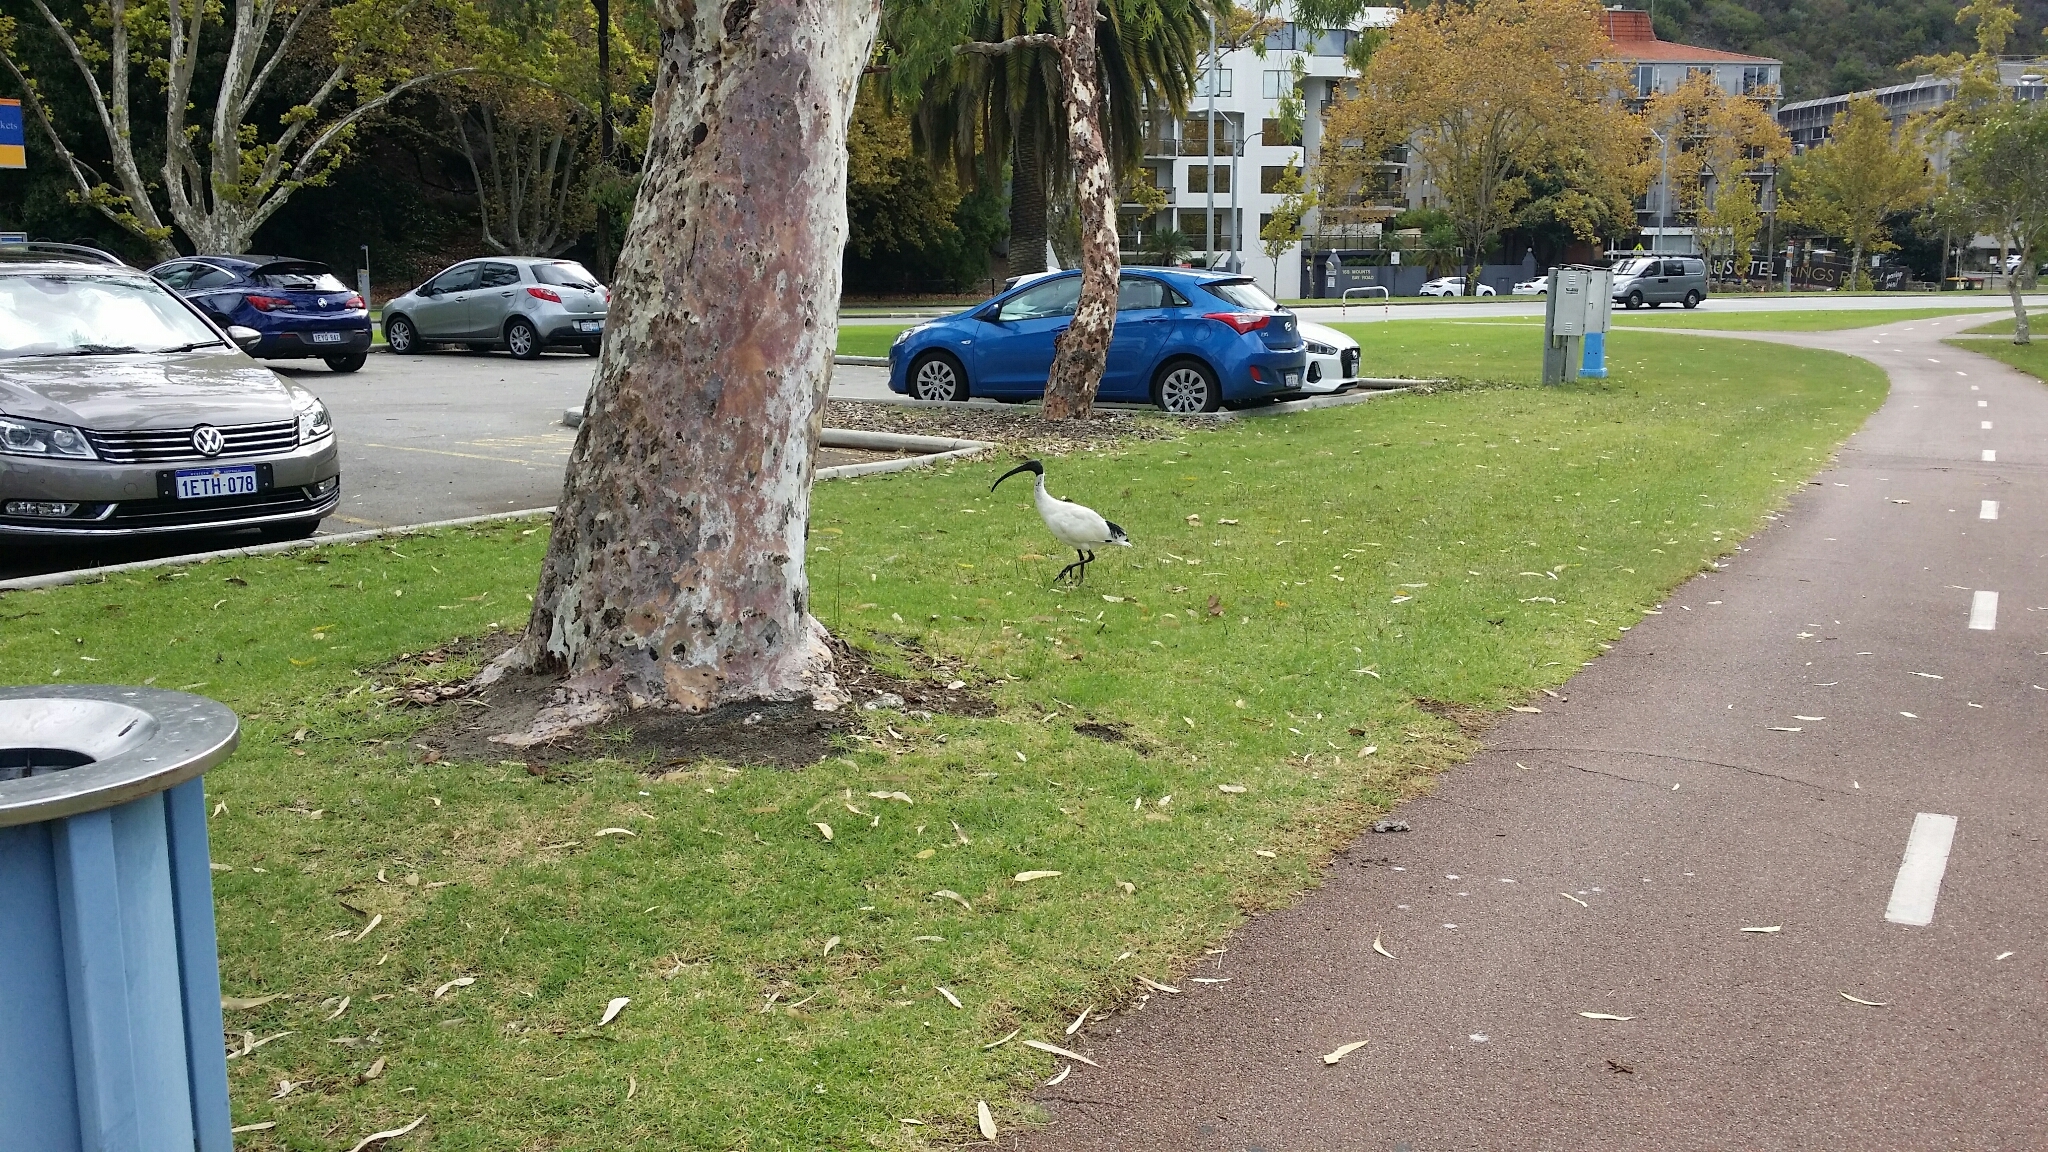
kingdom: Animalia
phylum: Chordata
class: Aves
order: Pelecaniformes
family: Threskiornithidae
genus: Threskiornis
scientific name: Threskiornis molucca
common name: Australian white ibis
